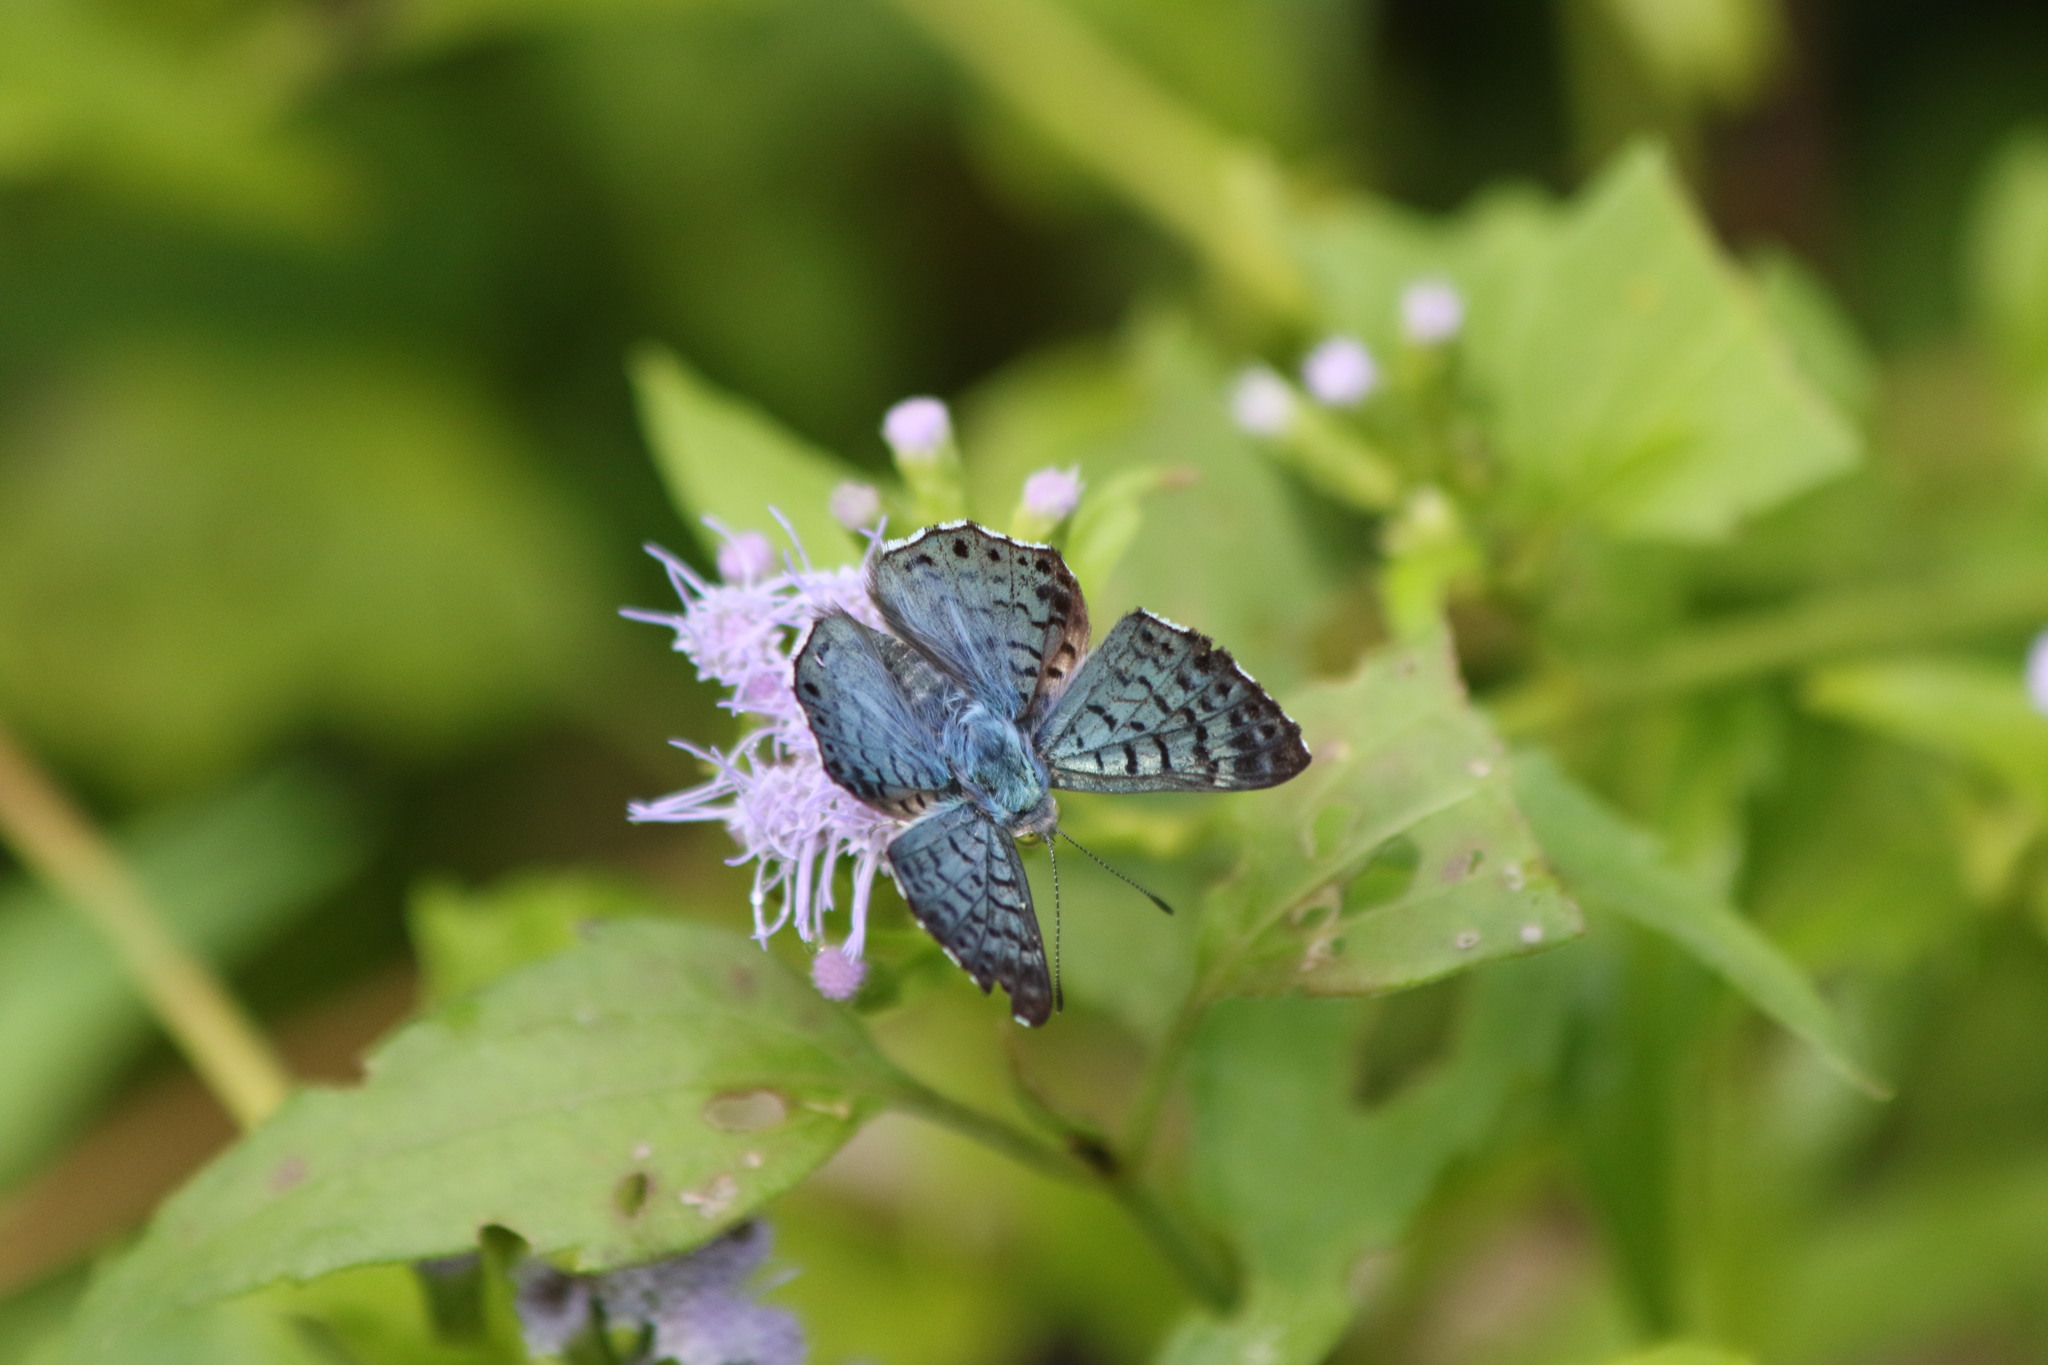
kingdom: Animalia
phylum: Arthropoda
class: Insecta
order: Lepidoptera
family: Riodinidae
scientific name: Riodinidae
